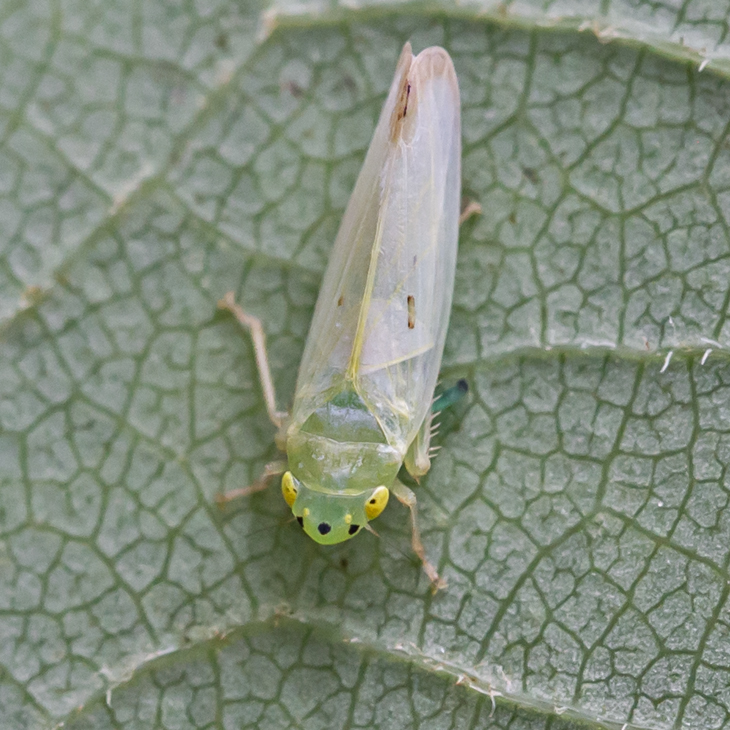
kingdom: Animalia
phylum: Arthropoda
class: Insecta
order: Hemiptera
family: Cicadellidae
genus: Pagaronia
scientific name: Pagaronia minor
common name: Leafhopper
